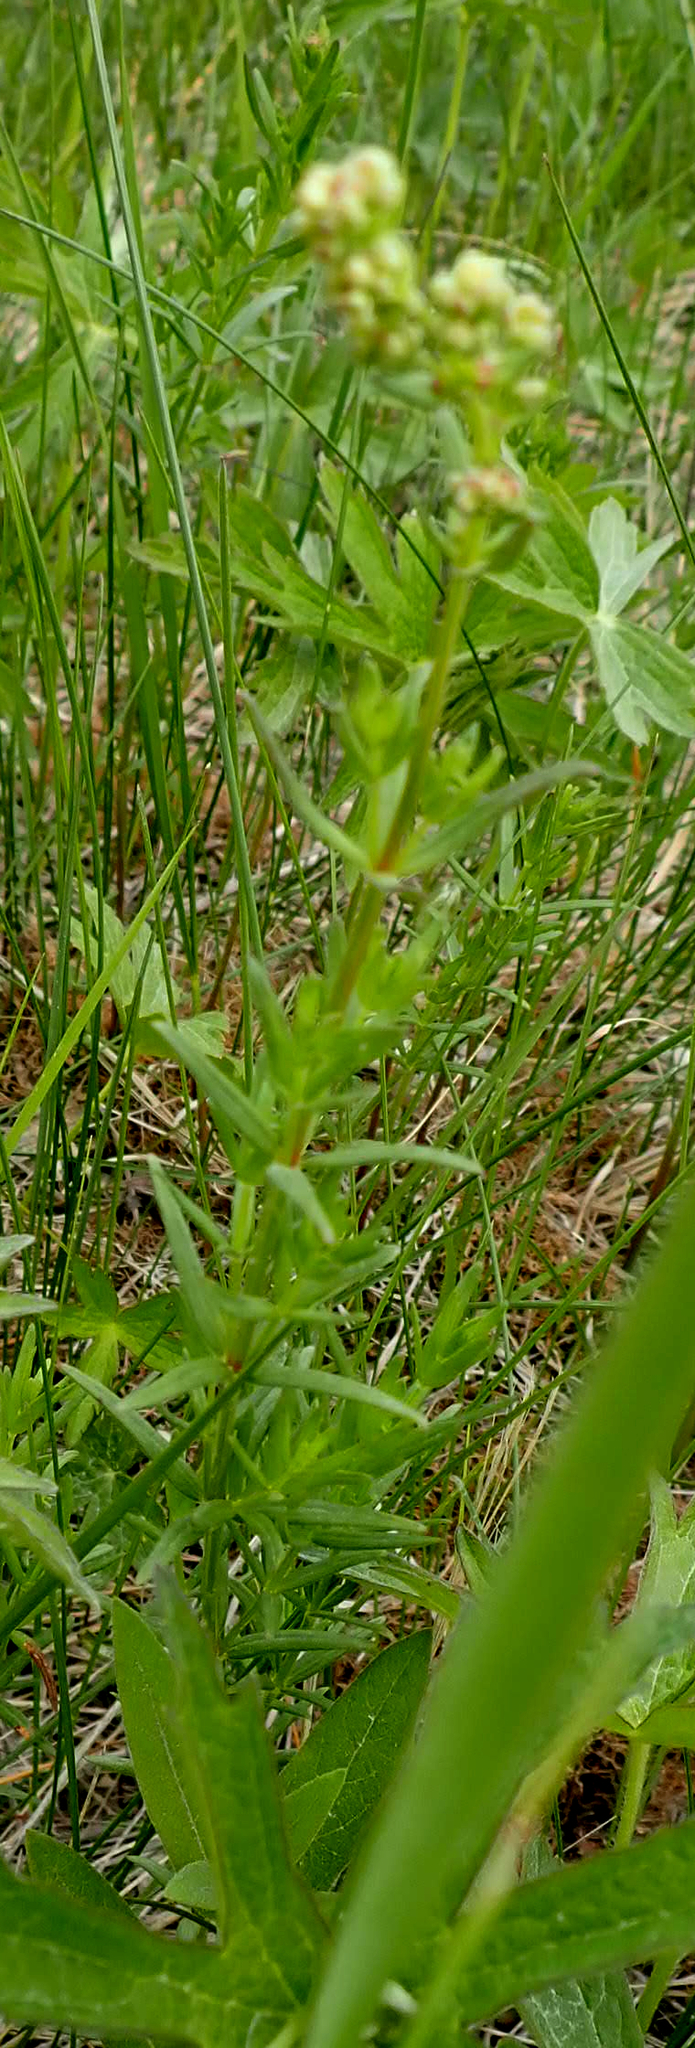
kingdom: Plantae
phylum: Tracheophyta
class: Magnoliopsida
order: Gentianales
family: Rubiaceae
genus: Galium
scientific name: Galium boreale
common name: Northern bedstraw
